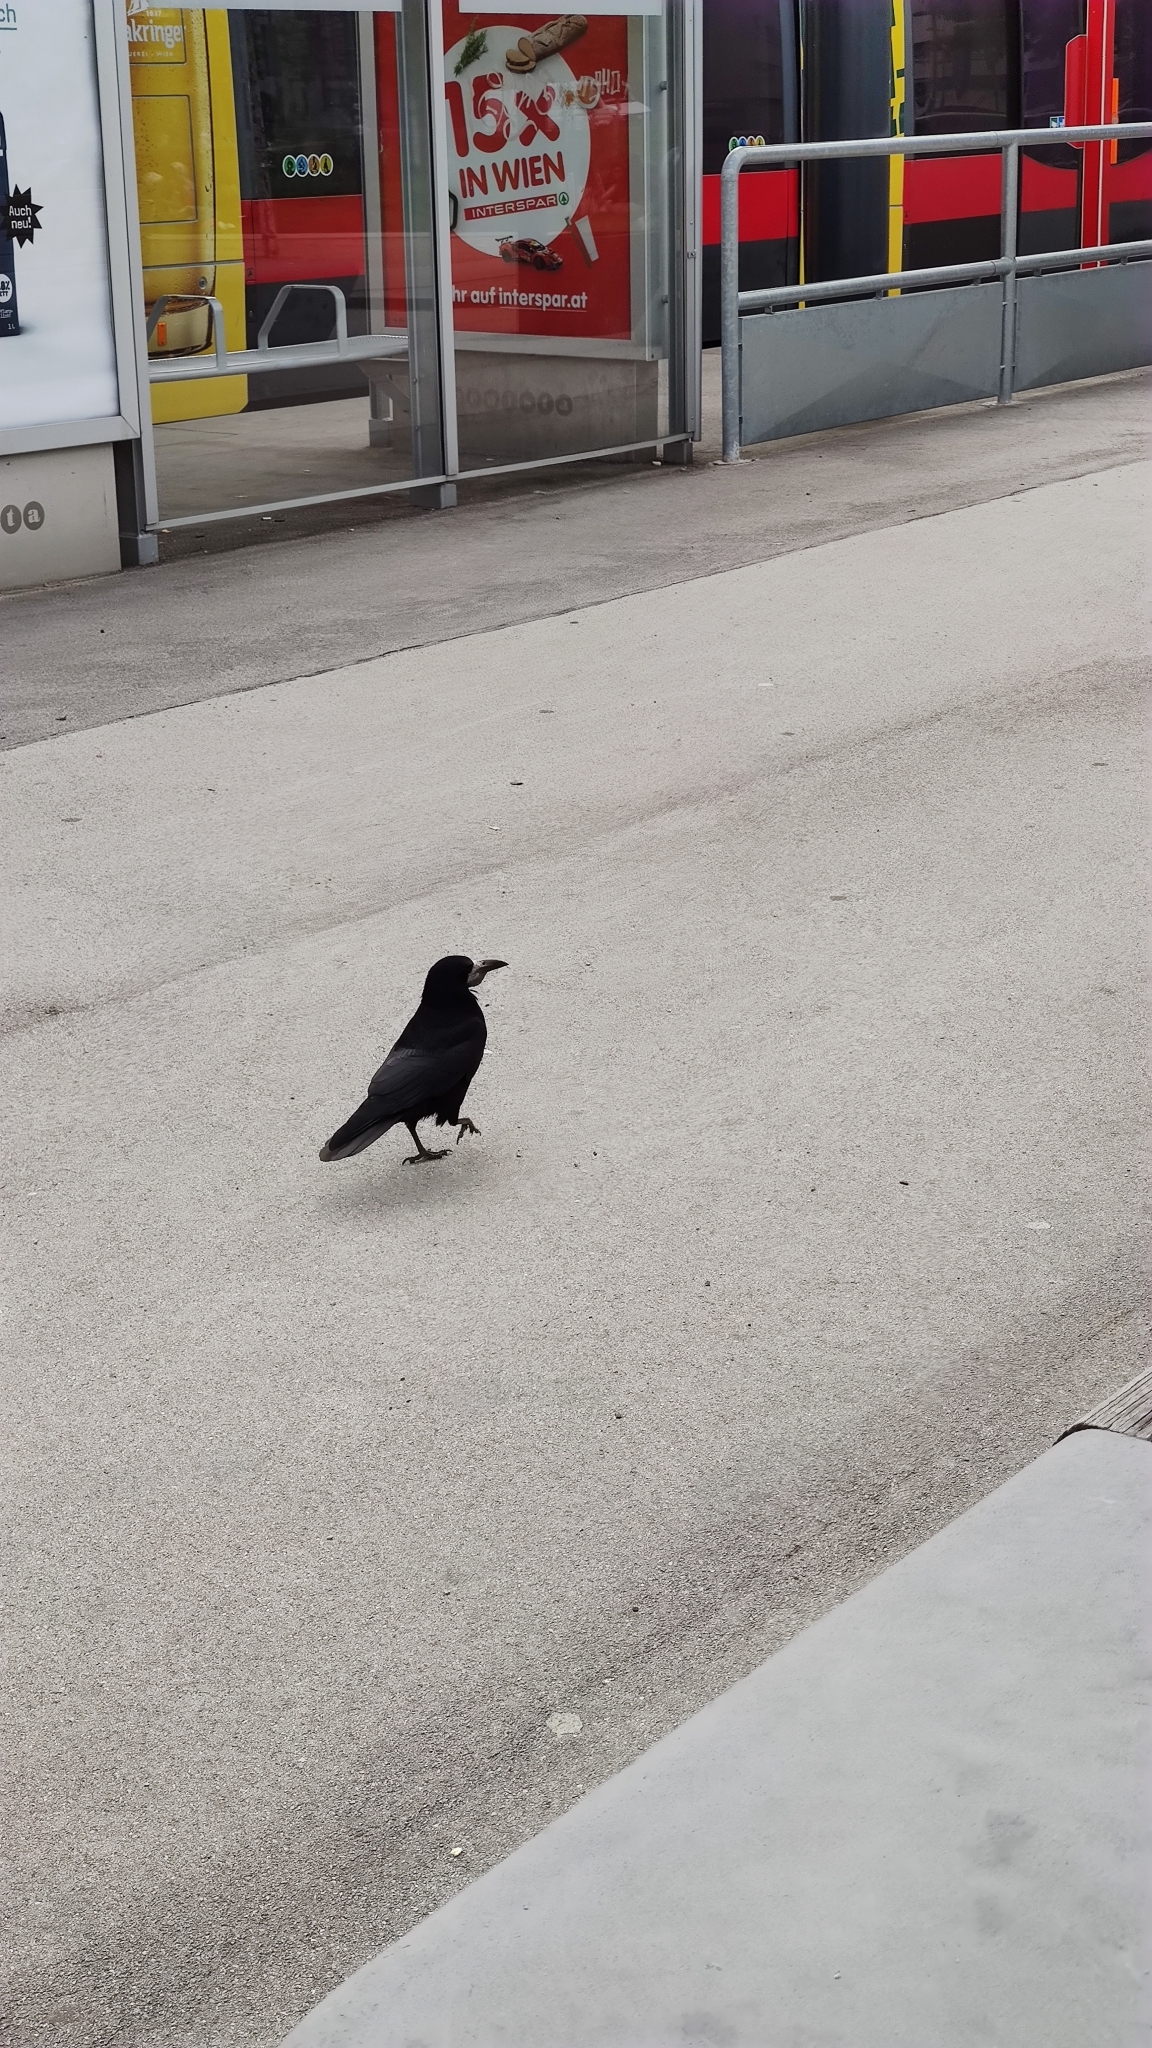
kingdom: Animalia
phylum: Chordata
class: Aves
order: Passeriformes
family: Corvidae
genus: Corvus
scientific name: Corvus frugilegus
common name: Rook
